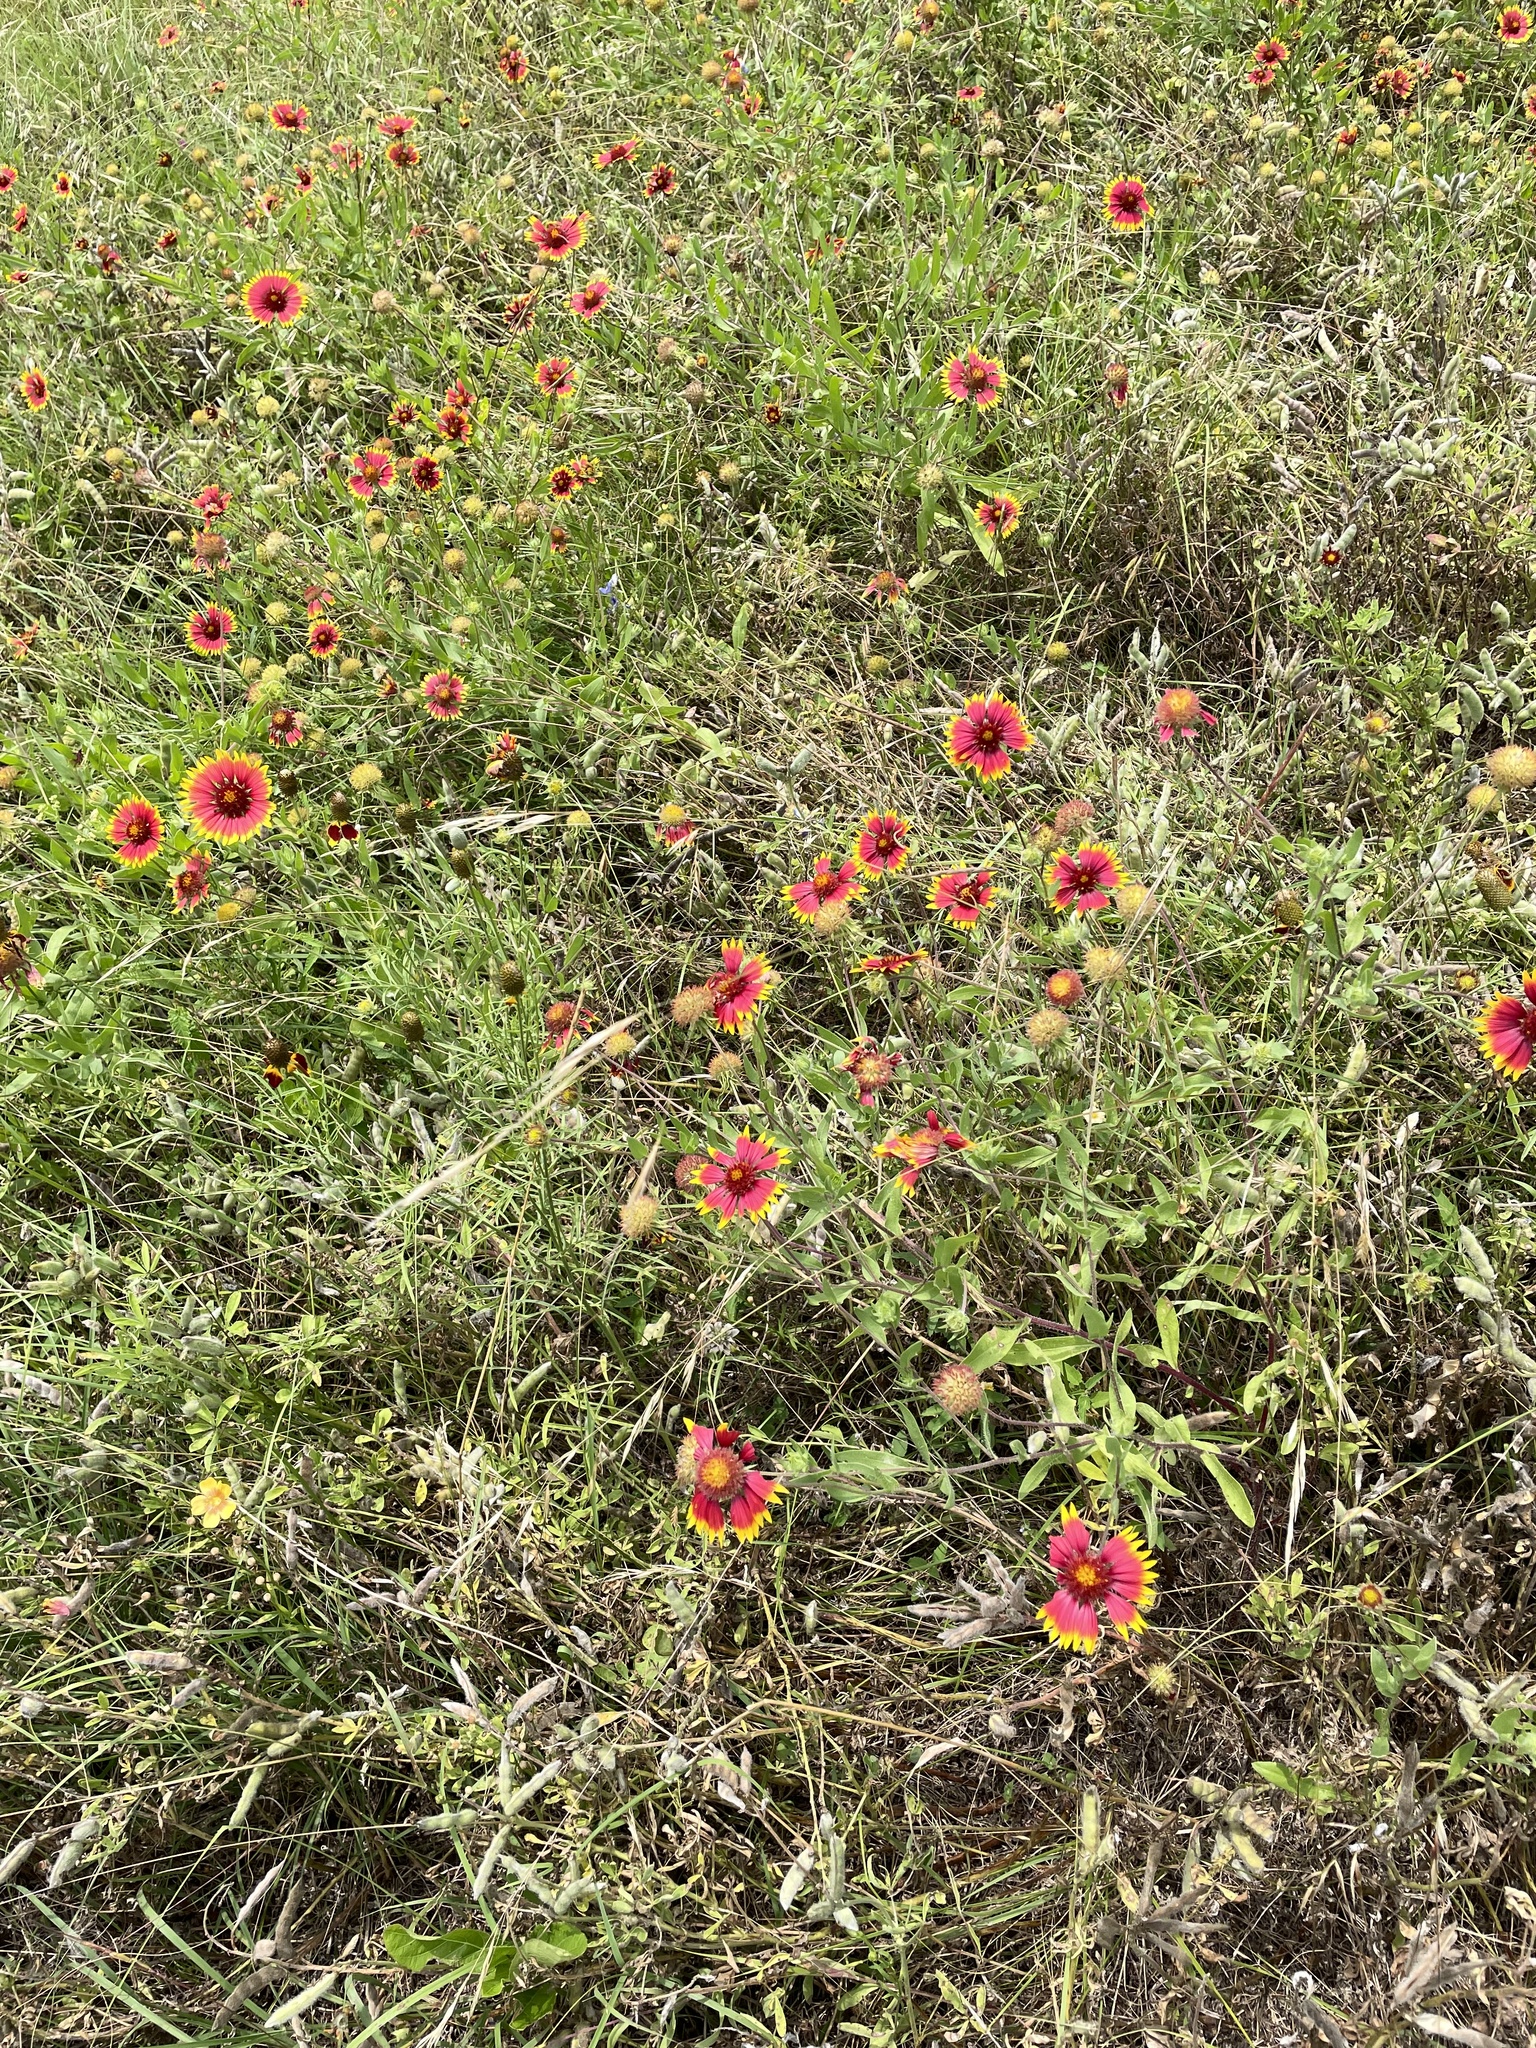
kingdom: Plantae
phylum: Tracheophyta
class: Magnoliopsida
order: Asterales
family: Asteraceae
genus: Gaillardia
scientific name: Gaillardia pulchella
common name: Firewheel
